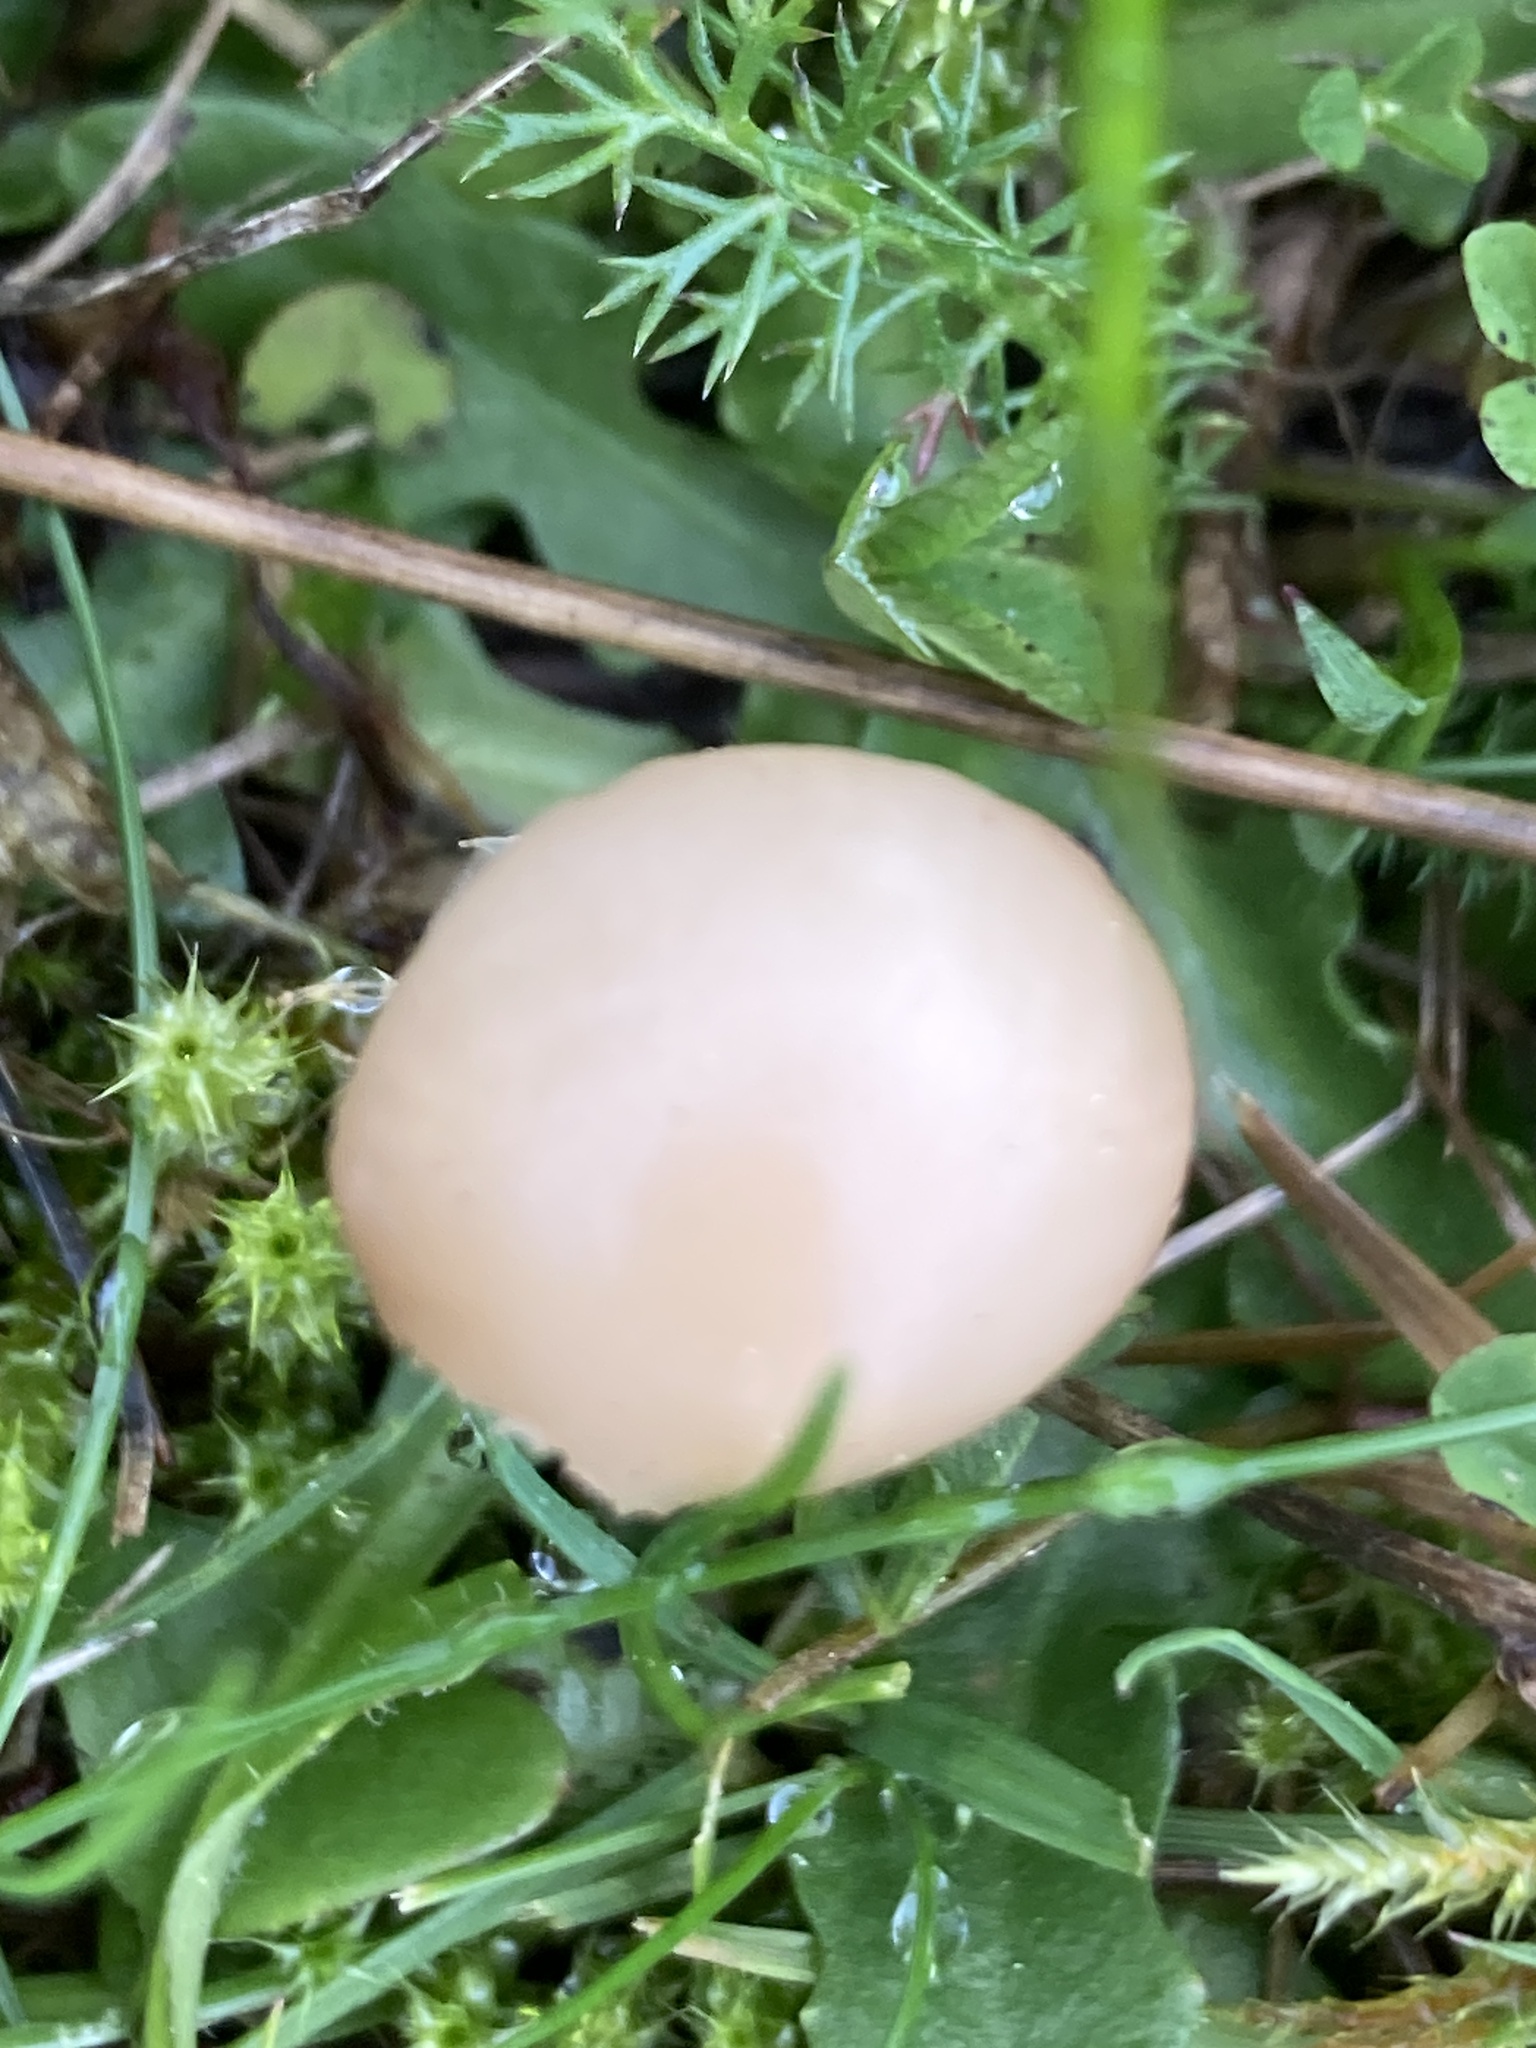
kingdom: Fungi
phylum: Basidiomycota
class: Agaricomycetes
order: Agaricales
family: Hygrophoraceae
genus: Cuphophyllus
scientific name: Cuphophyllus virgineus
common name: Snowy waxcap
